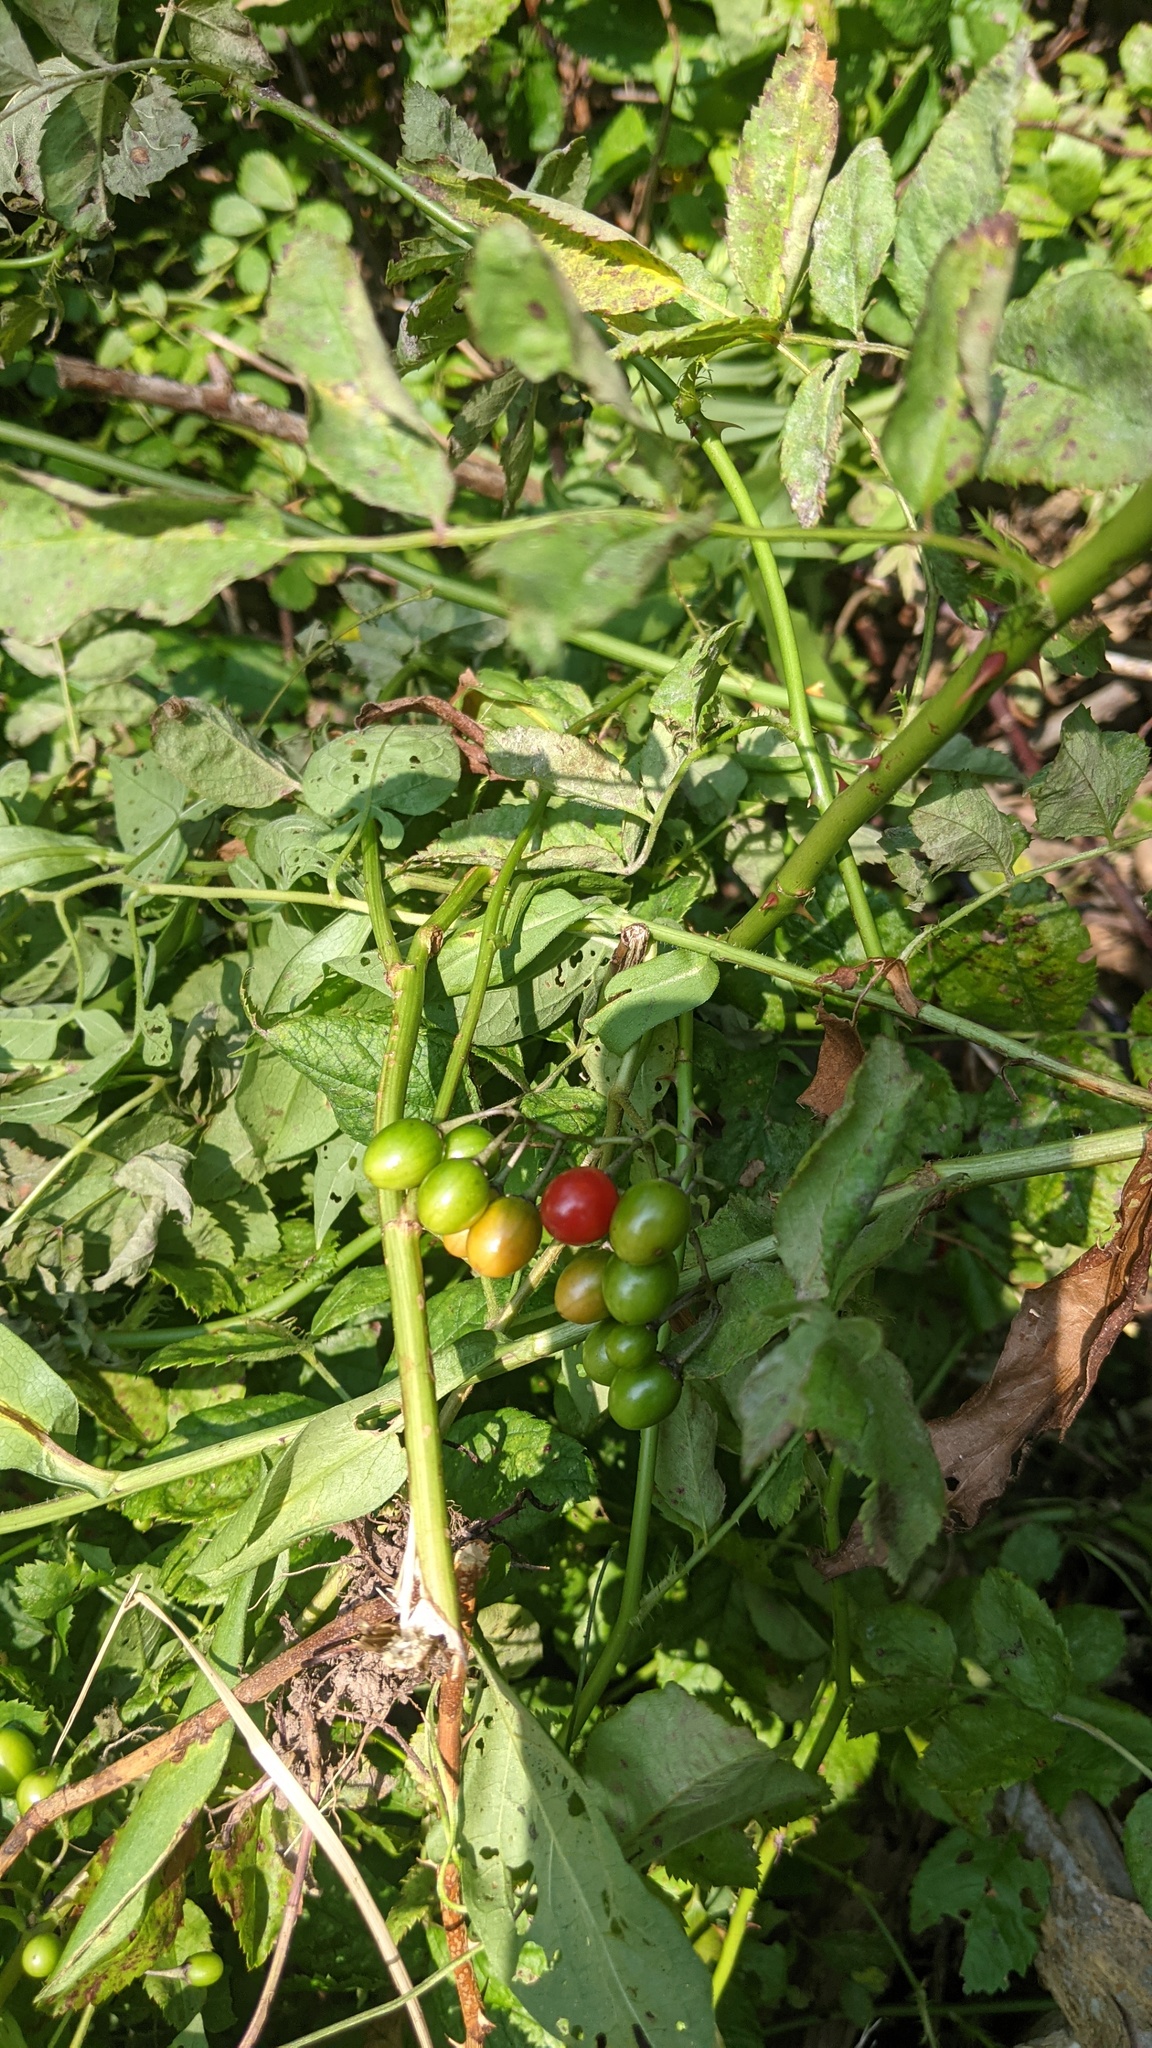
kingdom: Plantae
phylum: Tracheophyta
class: Magnoliopsida
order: Solanales
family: Solanaceae
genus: Solanum
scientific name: Solanum dulcamara
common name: Climbing nightshade
